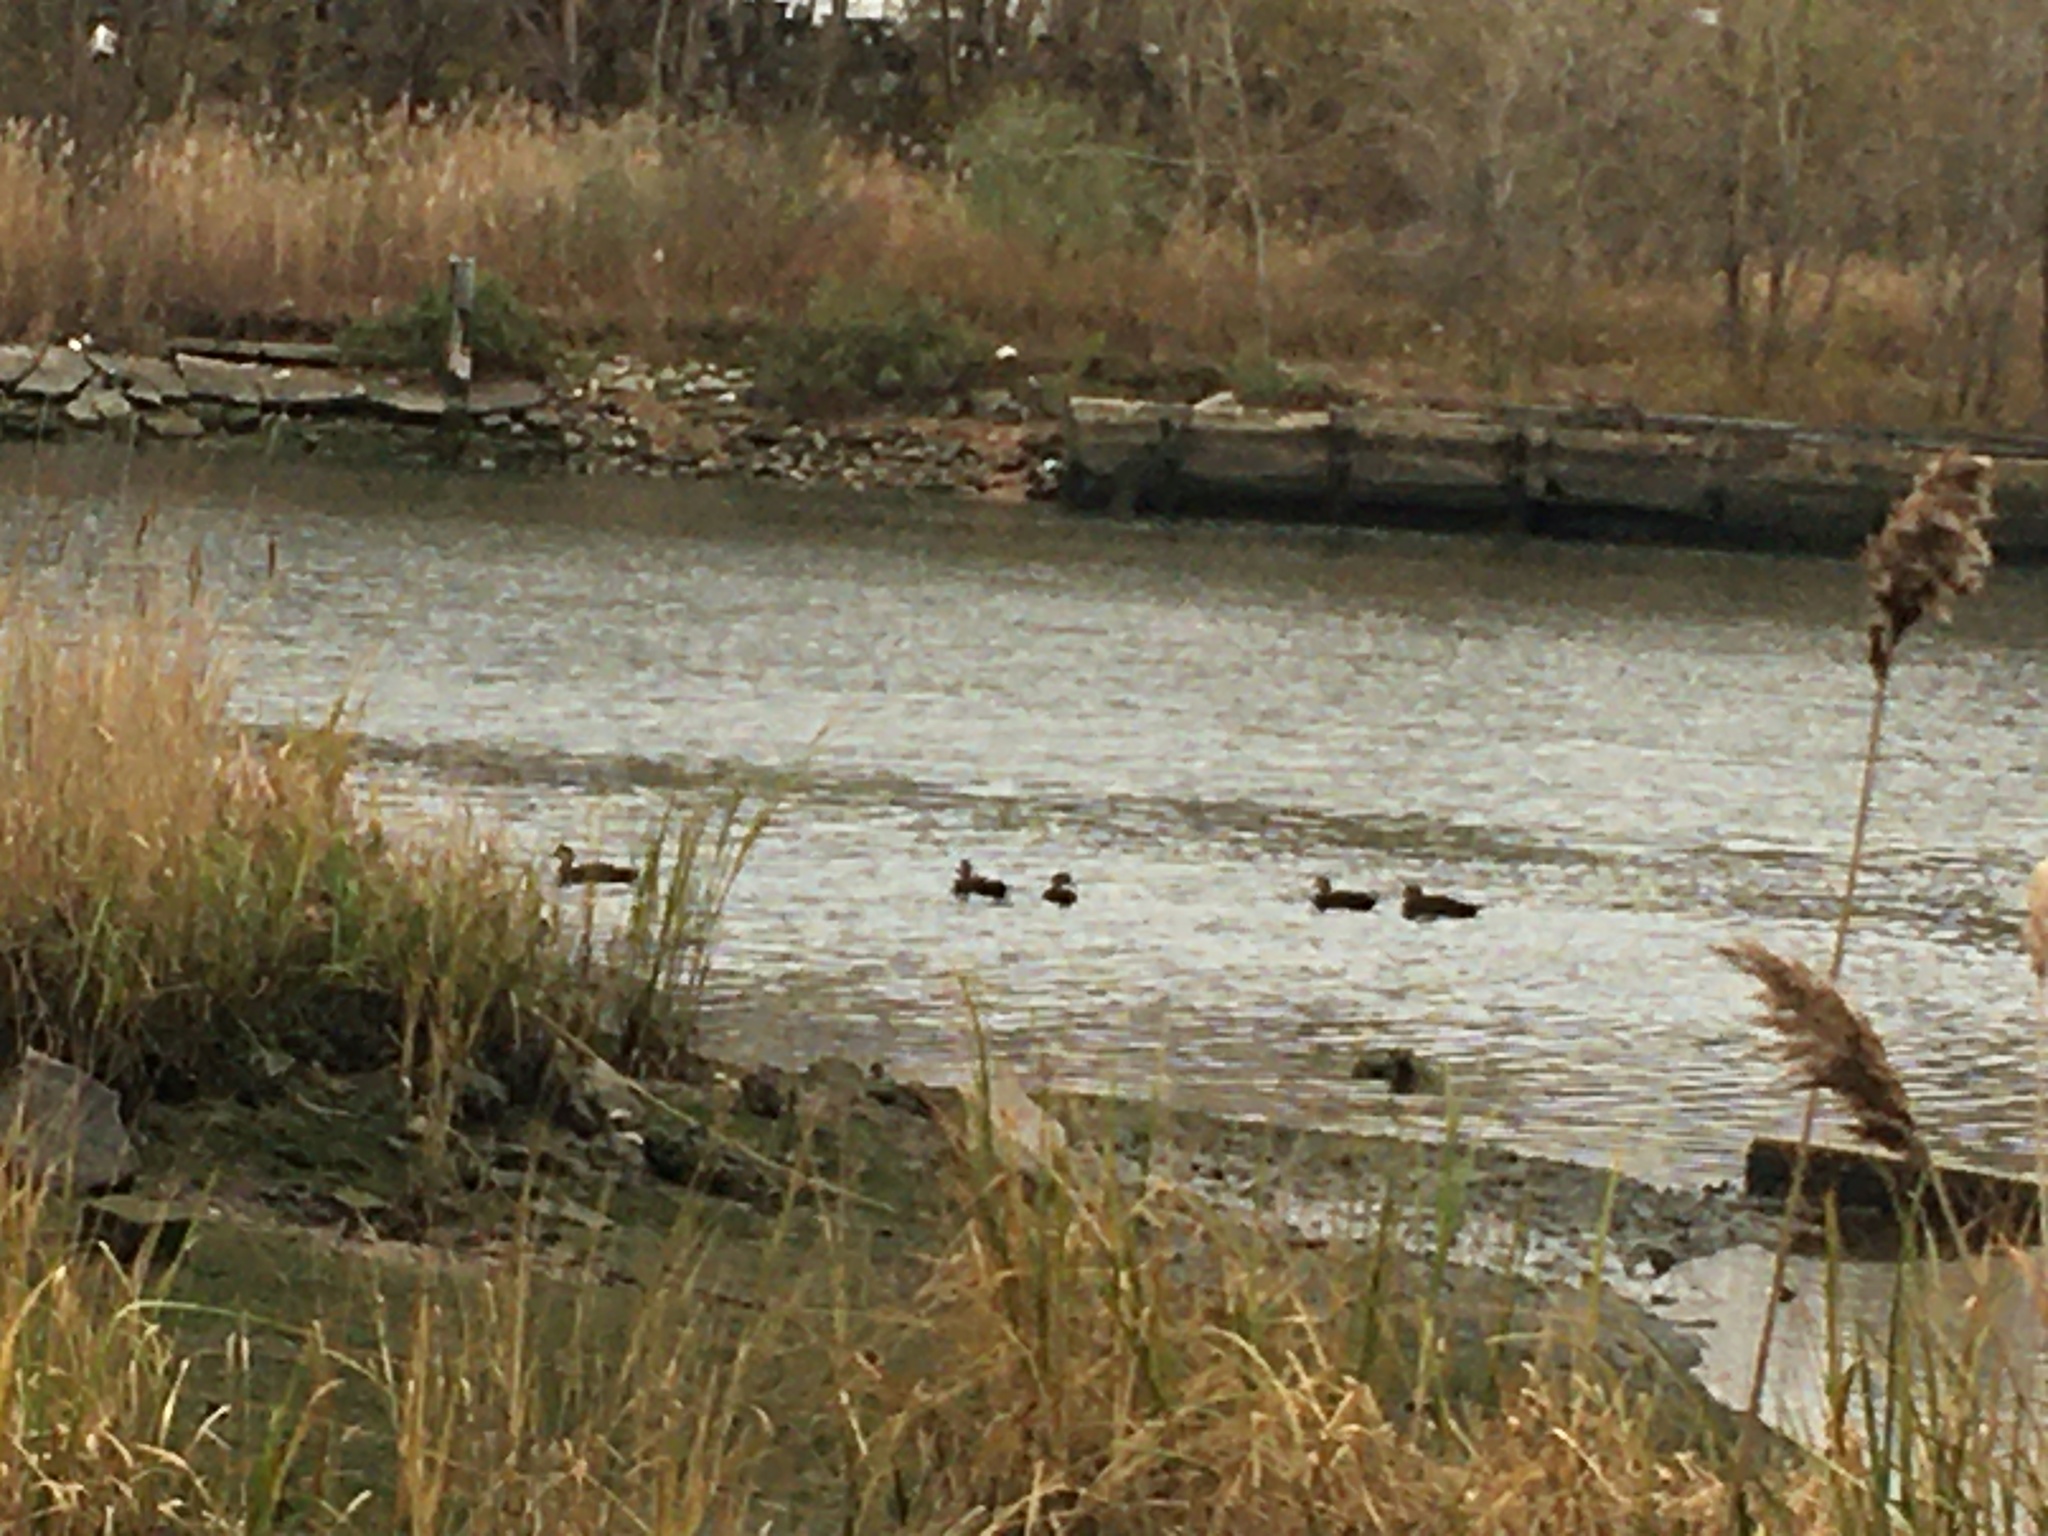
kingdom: Animalia
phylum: Chordata
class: Aves
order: Anseriformes
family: Anatidae
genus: Anas
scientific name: Anas rubripes
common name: American black duck
